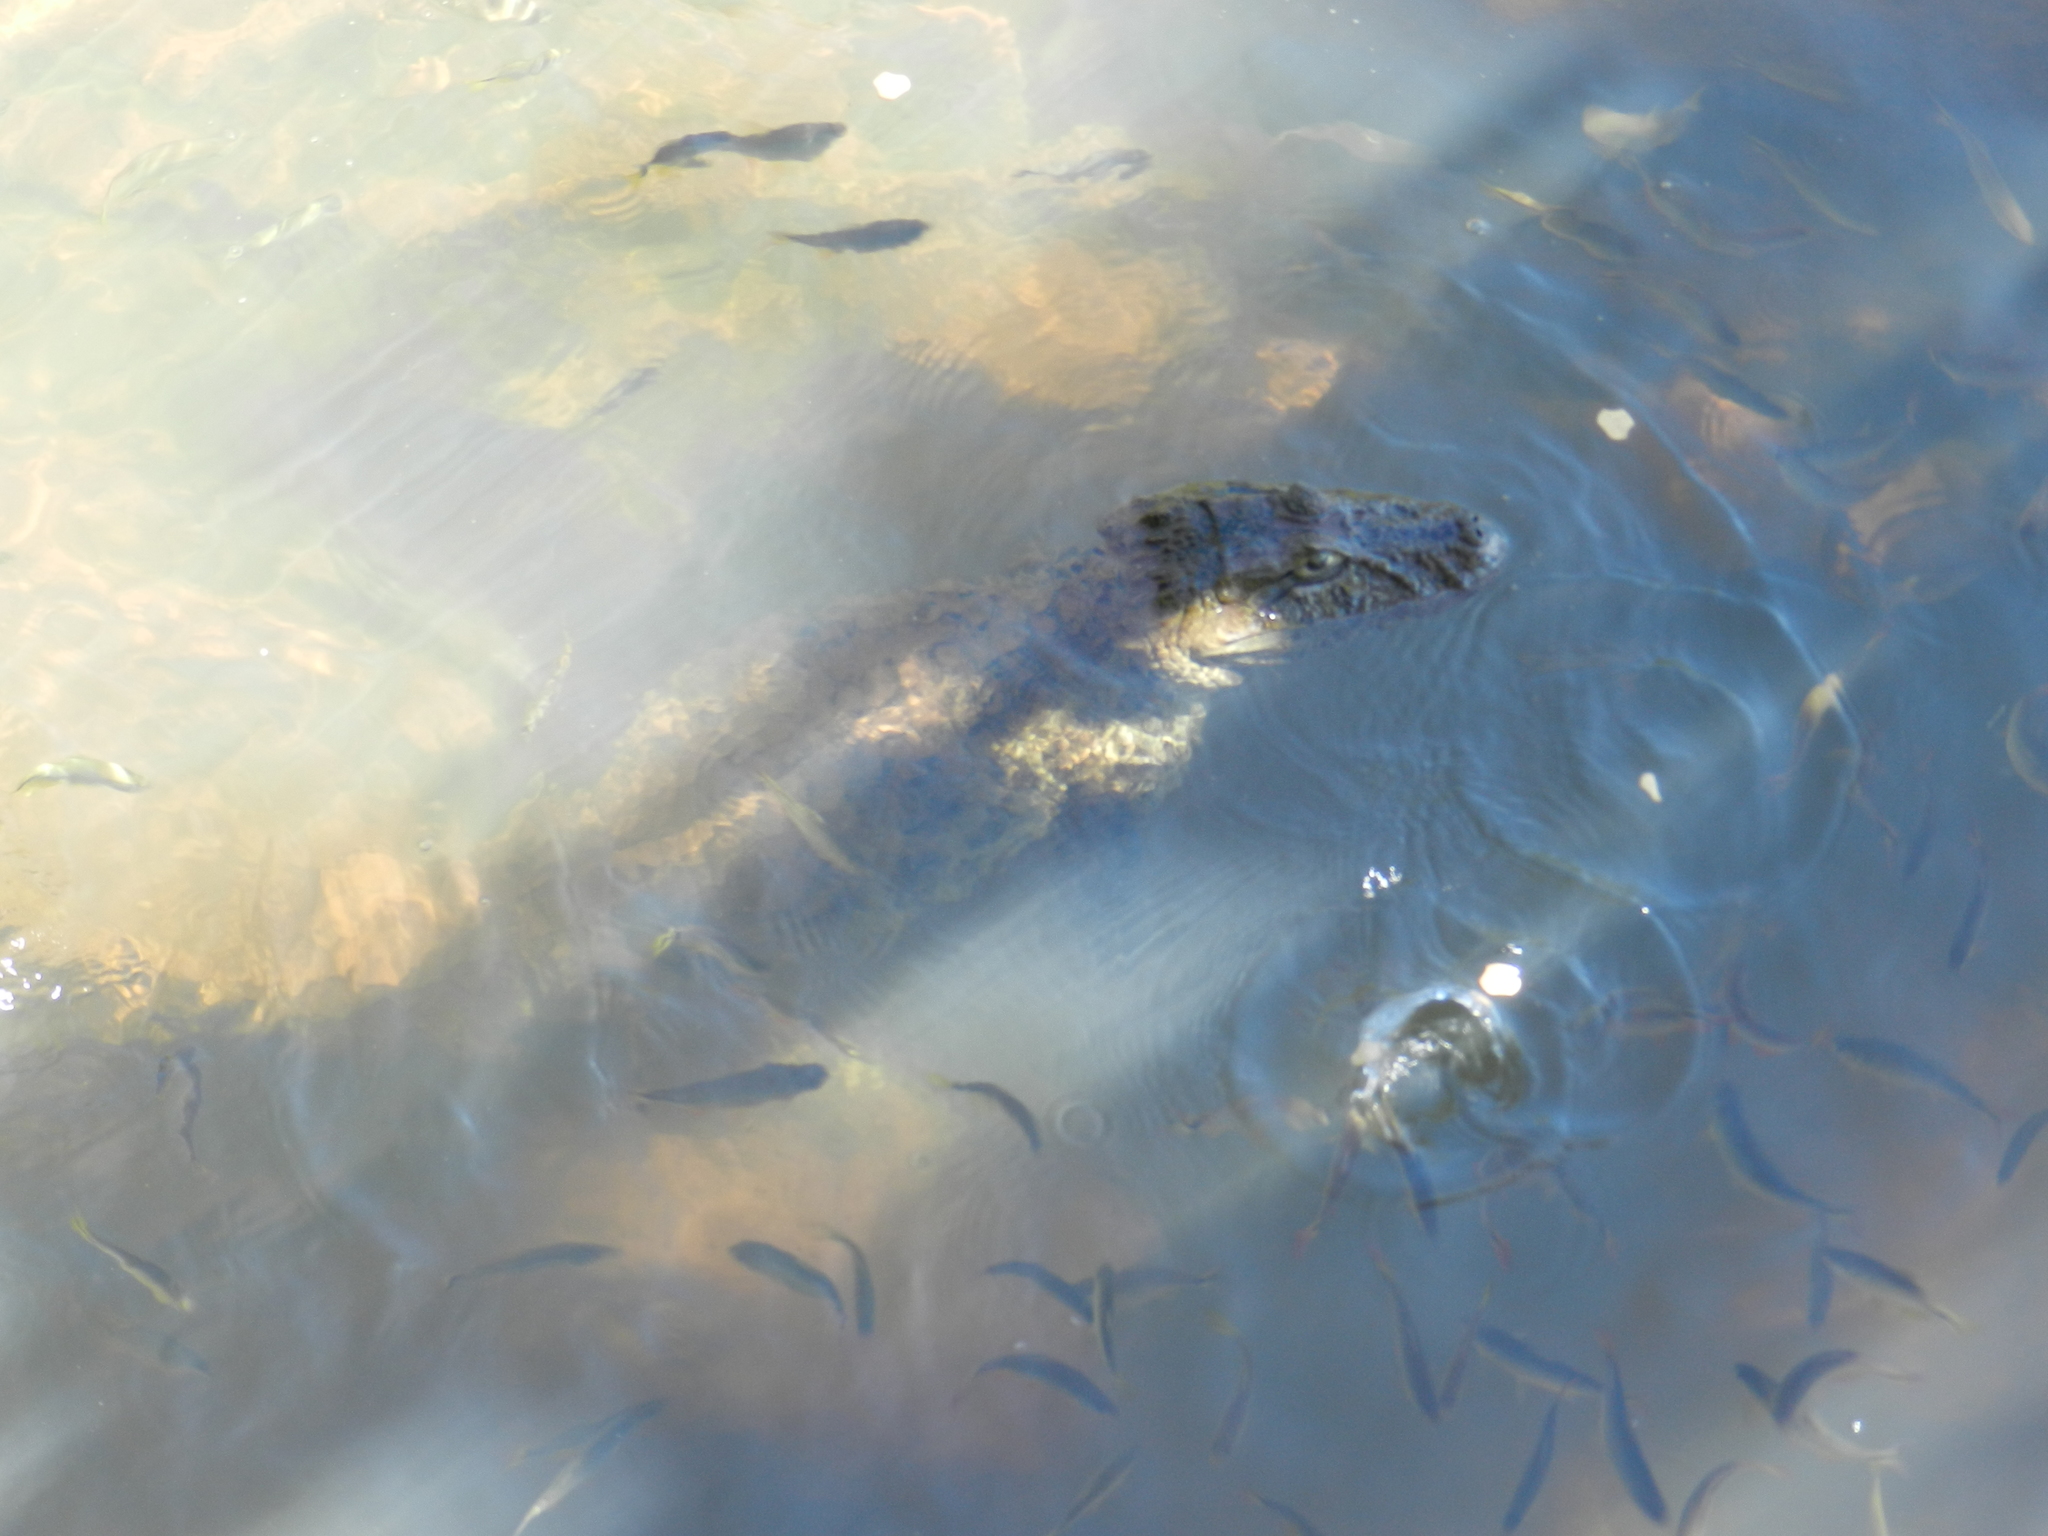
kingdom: Animalia
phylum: Chordata
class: Crocodylia
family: Alligatoridae
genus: Caiman
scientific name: Caiman latirostris
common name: Broad-snouted caiman
